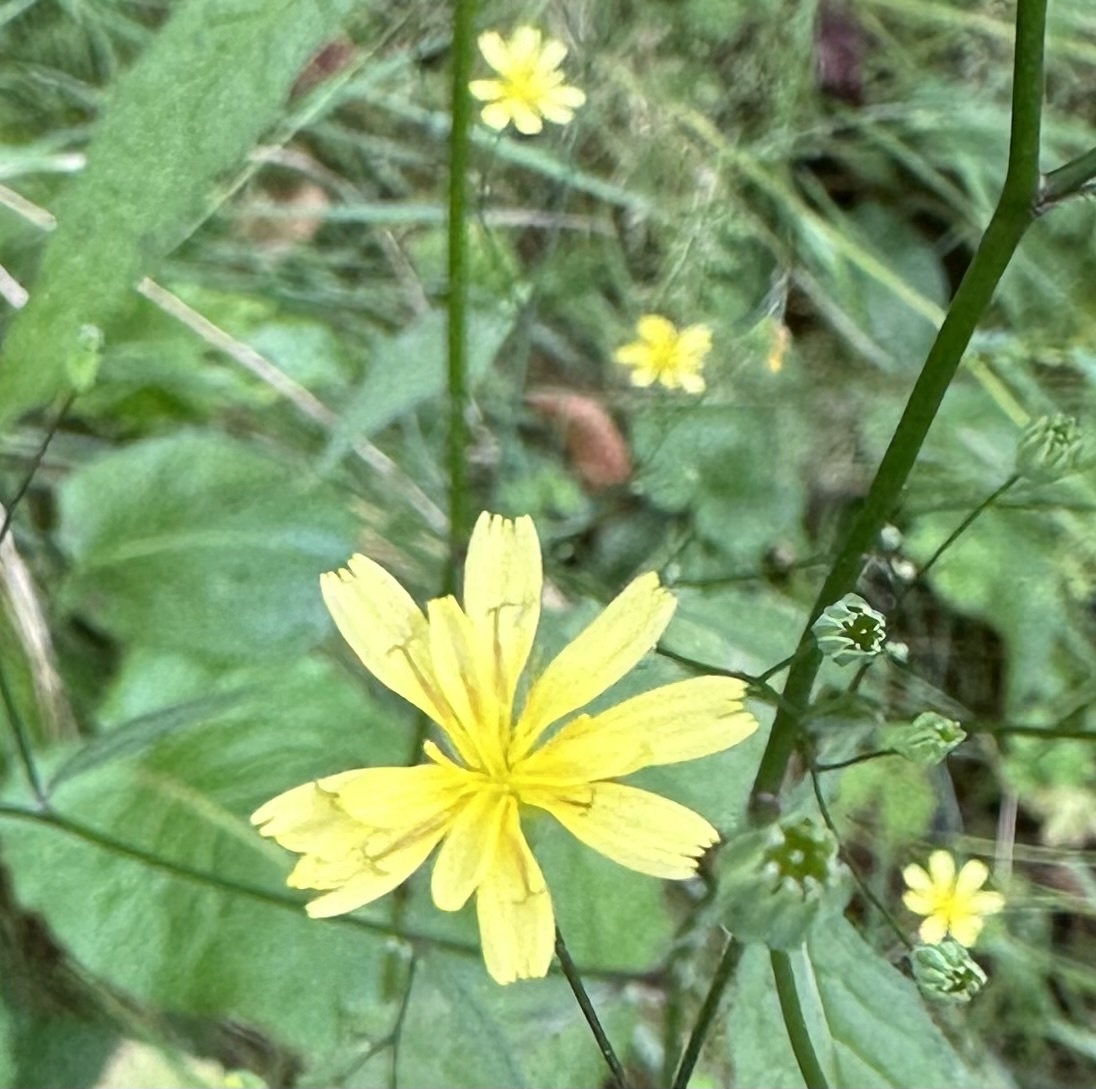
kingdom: Plantae
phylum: Tracheophyta
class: Magnoliopsida
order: Asterales
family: Asteraceae
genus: Lapsana
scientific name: Lapsana communis
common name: Nipplewort
